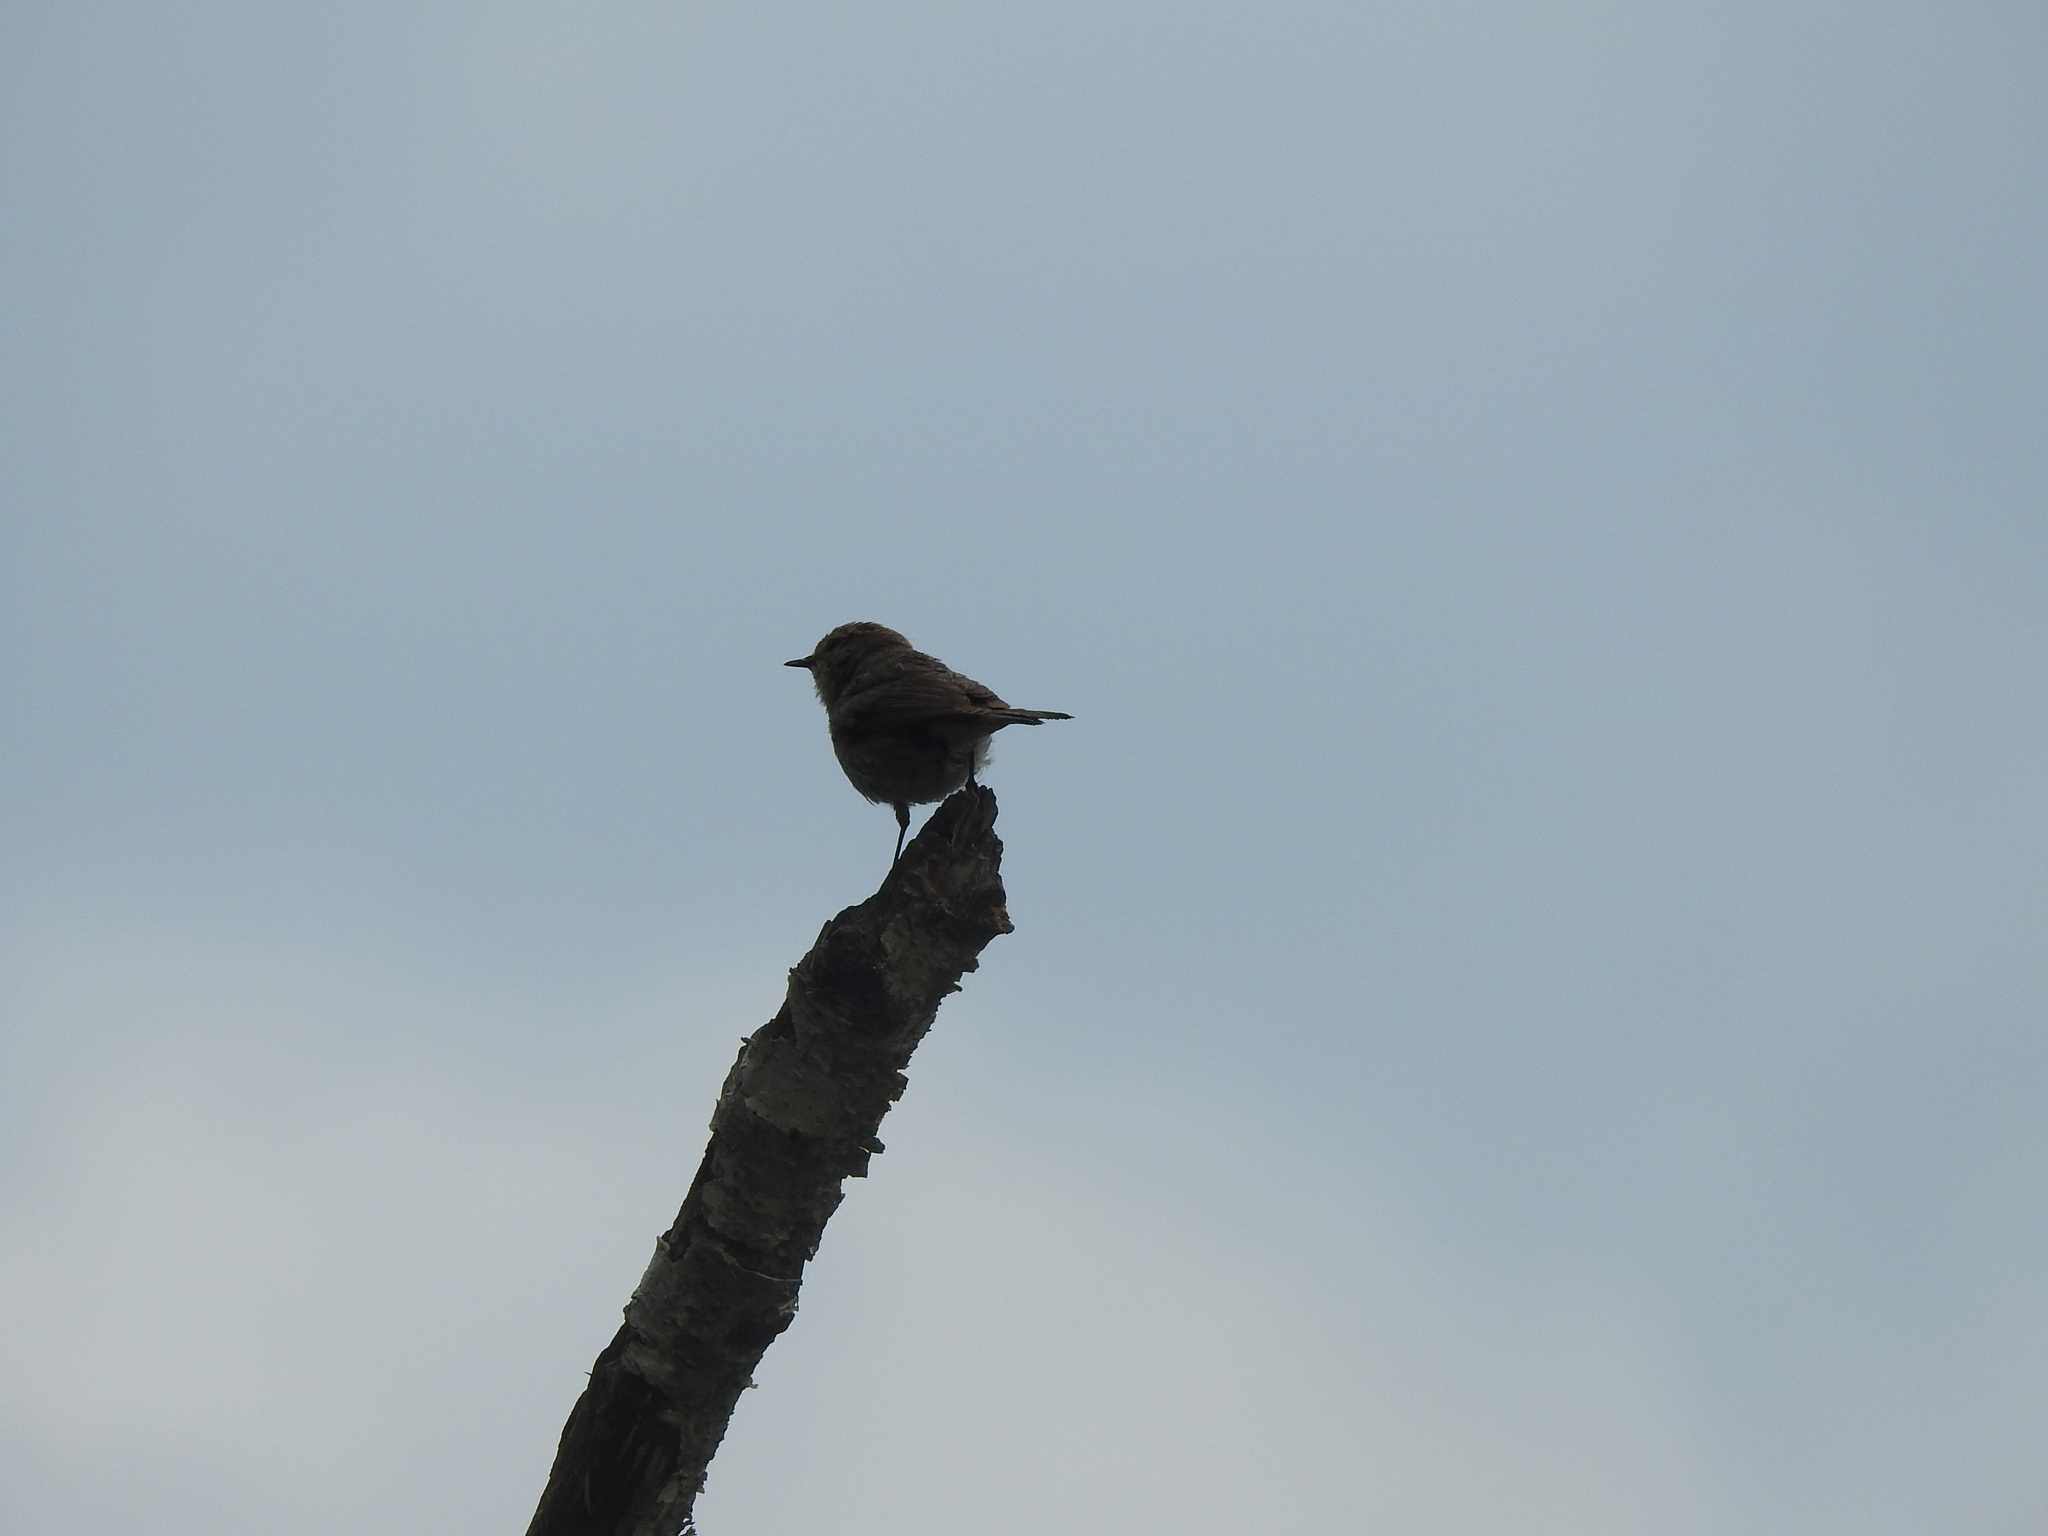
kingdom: Animalia
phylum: Chordata
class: Aves
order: Passeriformes
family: Phylloscopidae
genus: Phylloscopus
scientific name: Phylloscopus collybita
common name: Common chiffchaff
